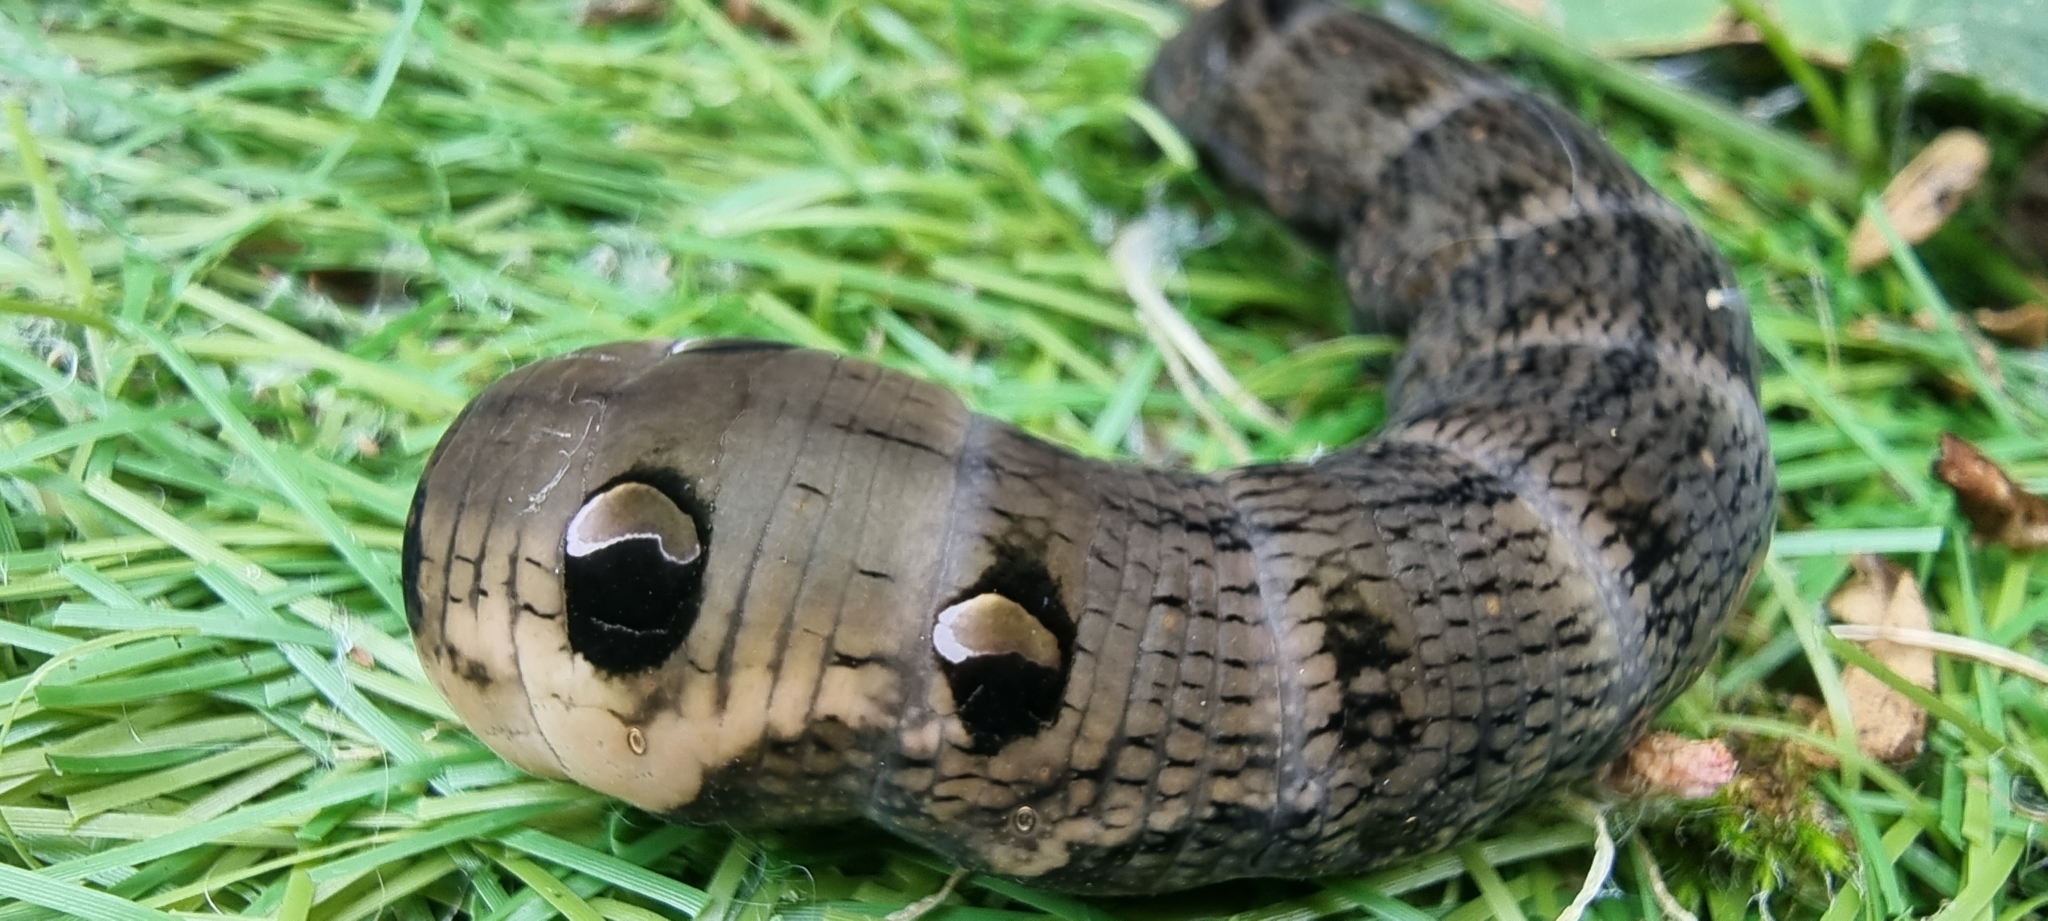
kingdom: Animalia
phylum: Arthropoda
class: Insecta
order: Lepidoptera
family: Sphingidae
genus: Deilephila
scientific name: Deilephila elpenor
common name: Elephant hawk-moth
